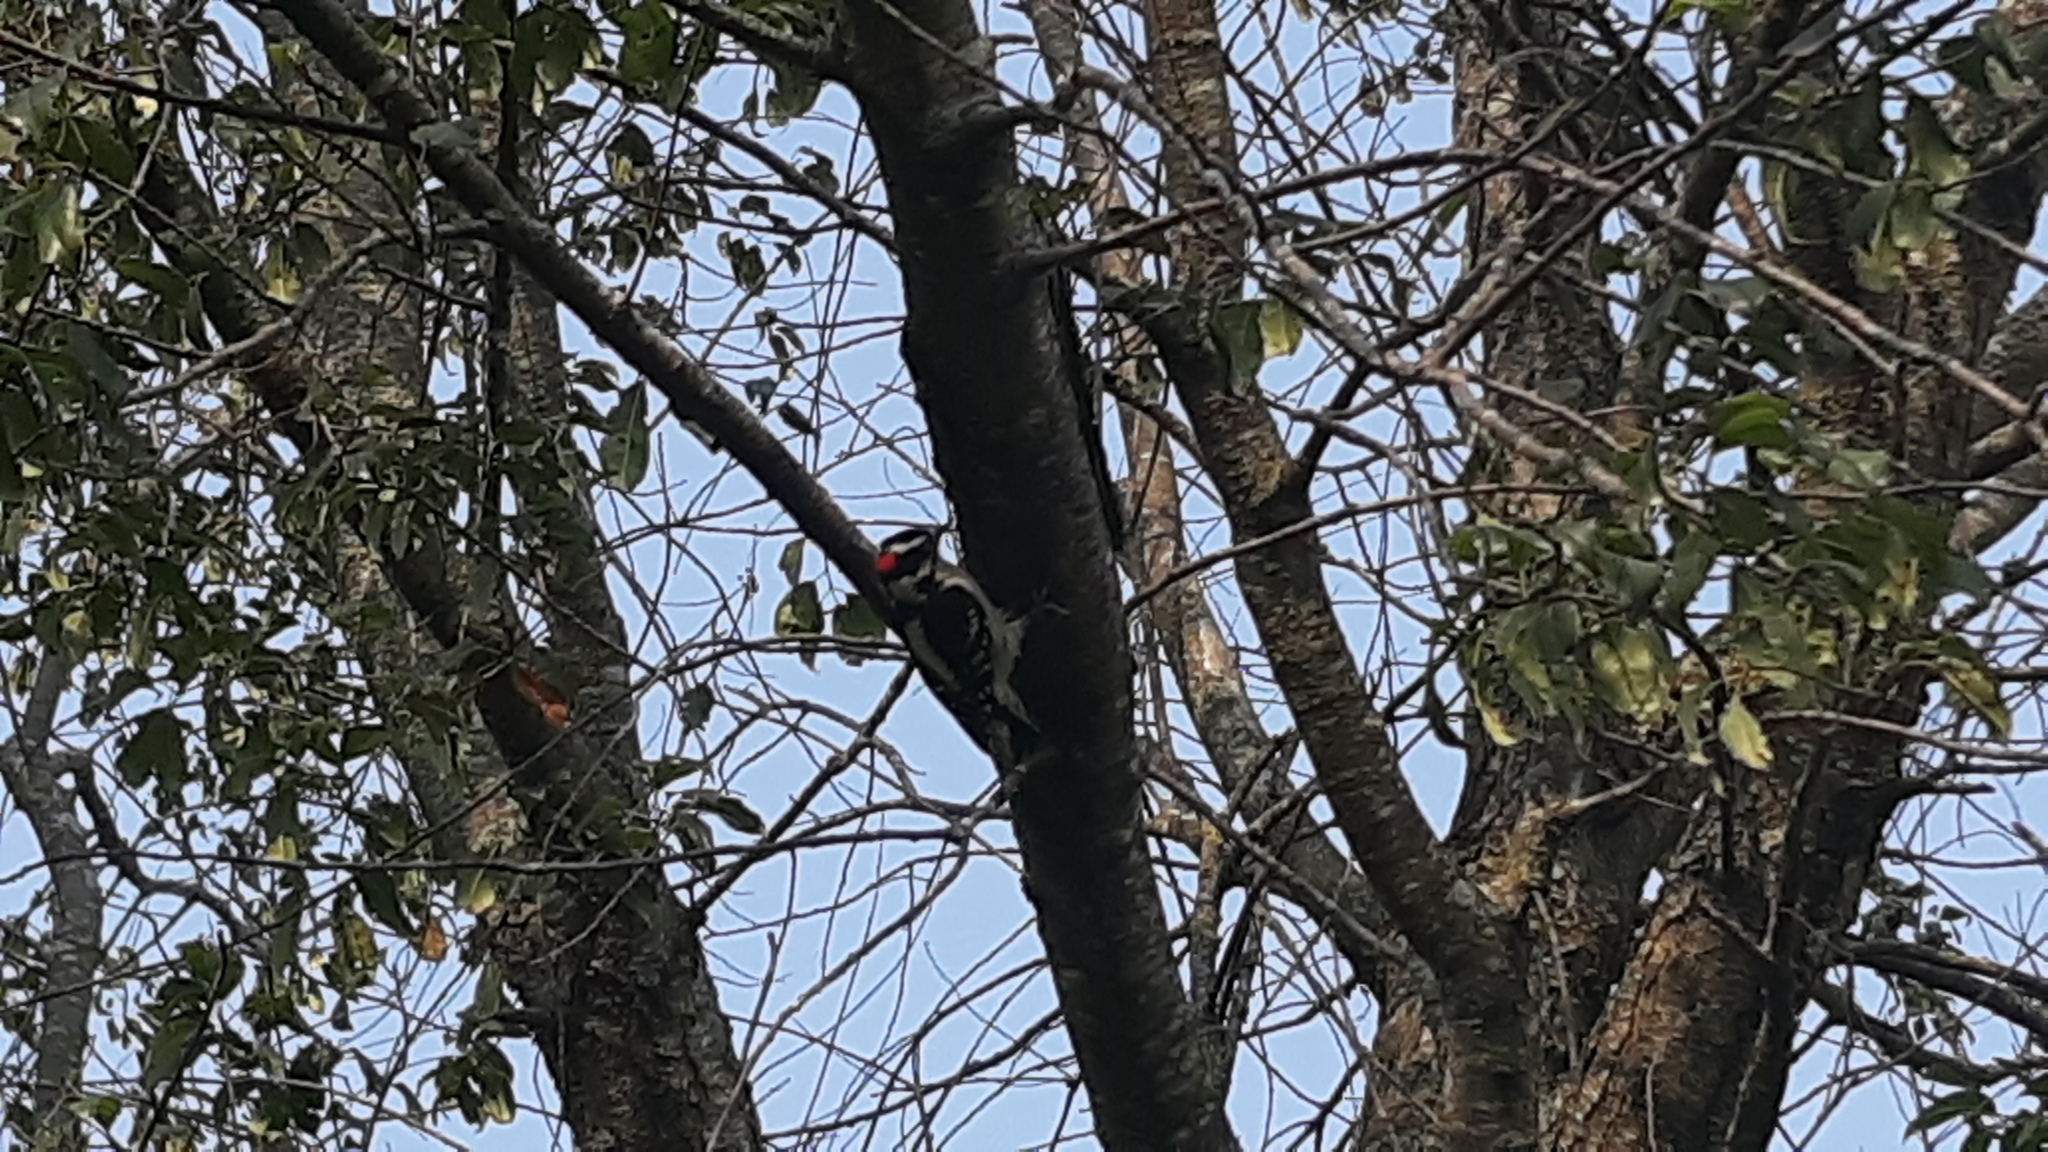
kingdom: Animalia
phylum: Chordata
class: Aves
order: Piciformes
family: Picidae
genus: Dryobates
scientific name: Dryobates pubescens
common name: Downy woodpecker
